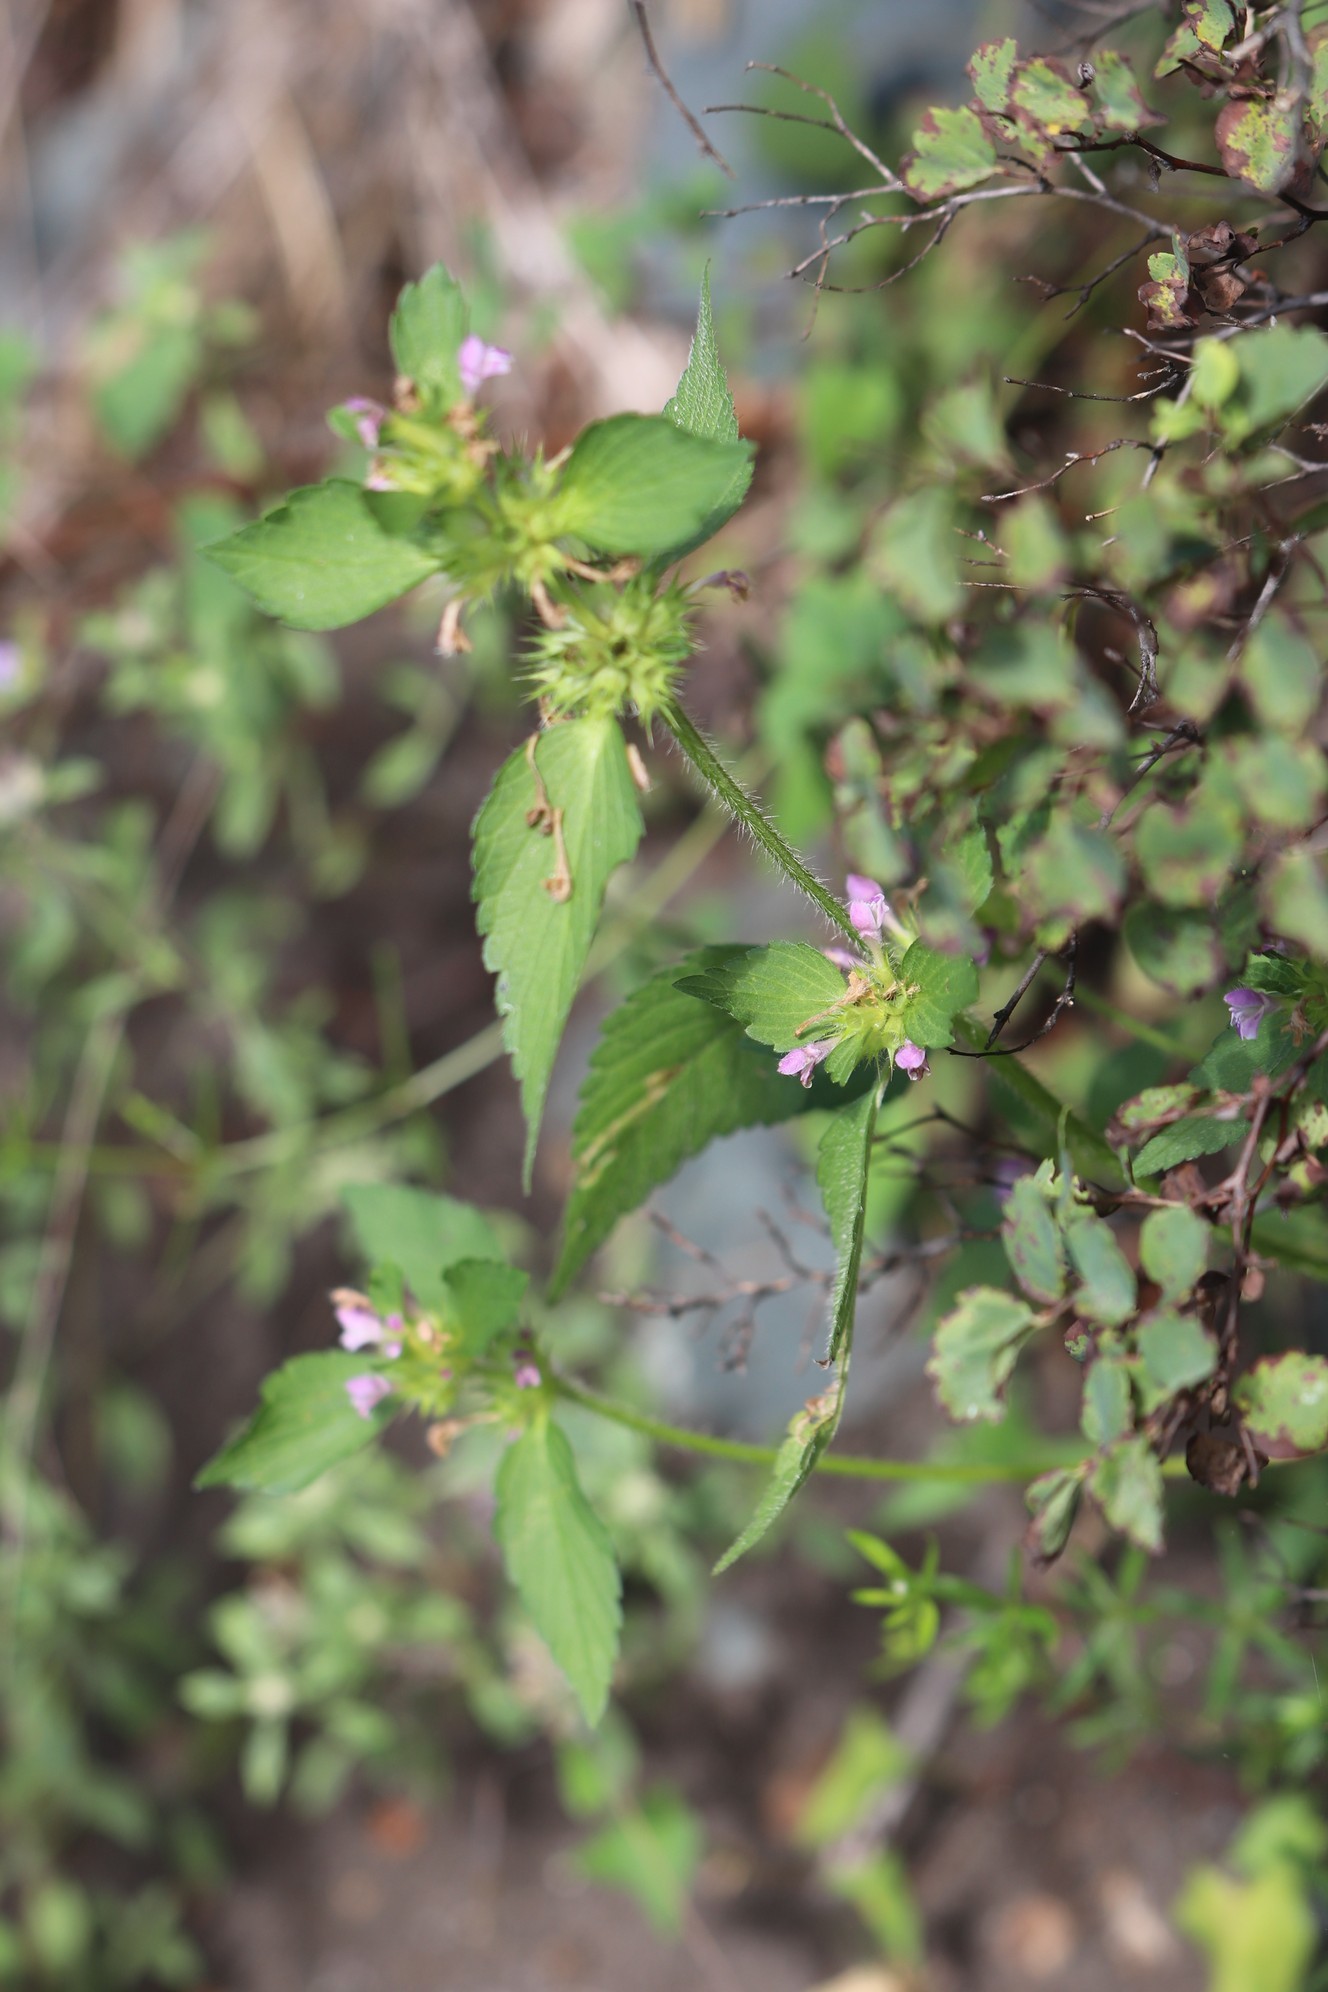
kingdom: Plantae
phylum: Tracheophyta
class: Magnoliopsida
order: Lamiales
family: Lamiaceae
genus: Galeopsis
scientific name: Galeopsis bifida
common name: Bifid hemp-nettle
